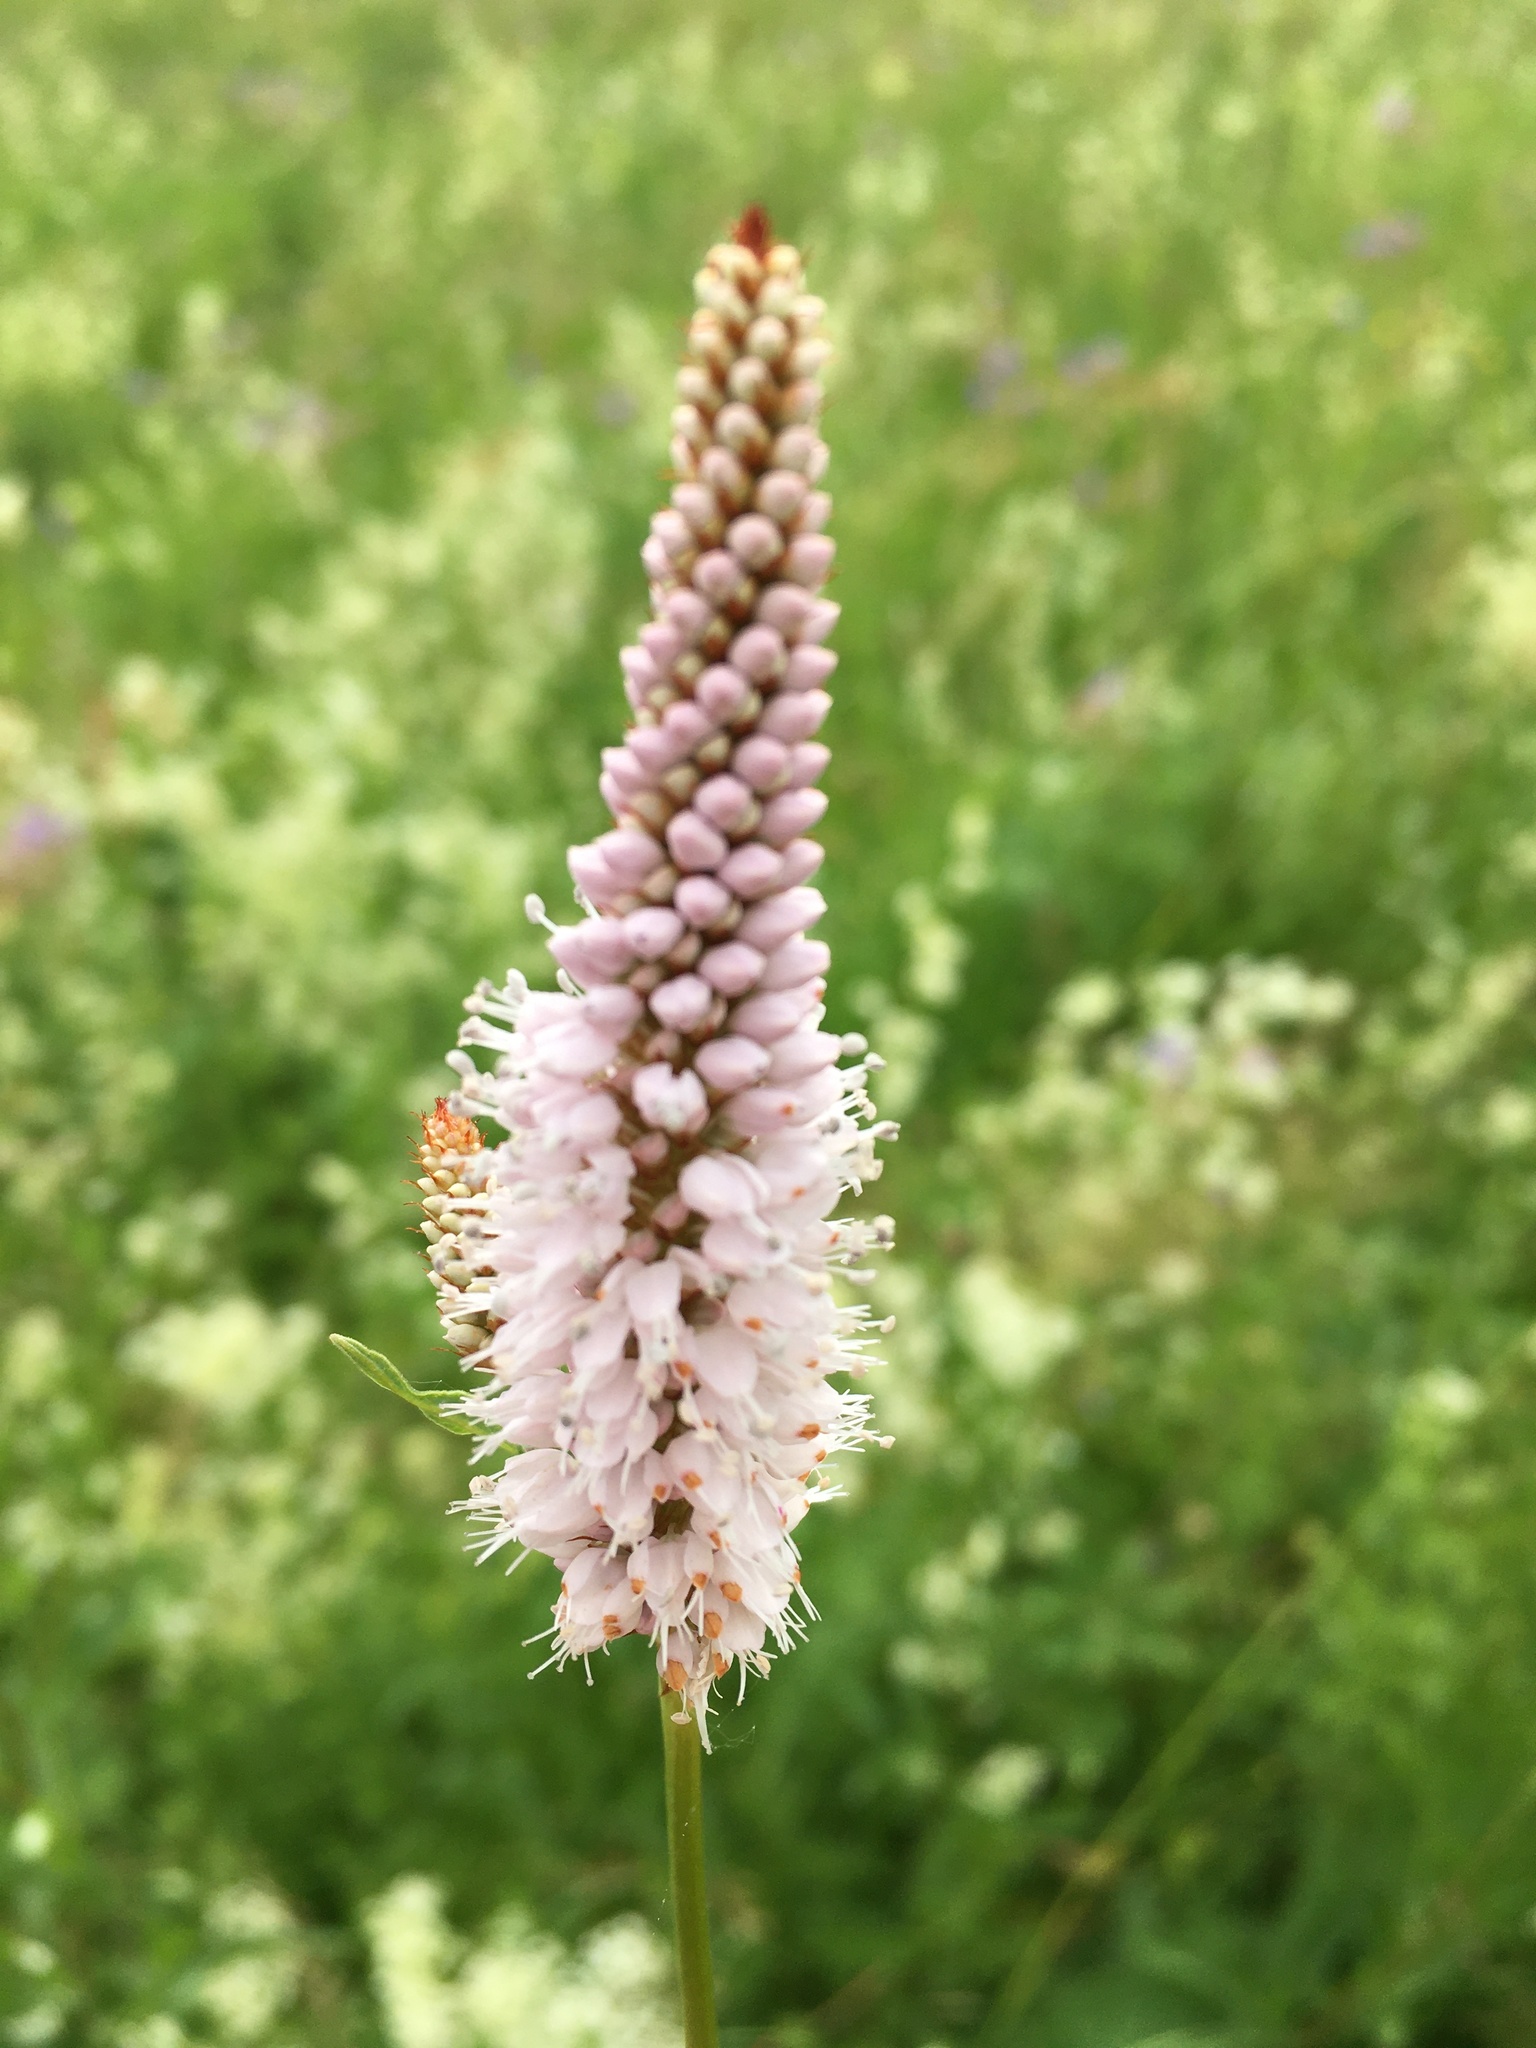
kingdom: Plantae
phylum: Tracheophyta
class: Magnoliopsida
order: Caryophyllales
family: Polygonaceae
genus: Bistorta
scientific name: Bistorta officinalis
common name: Common bistort
